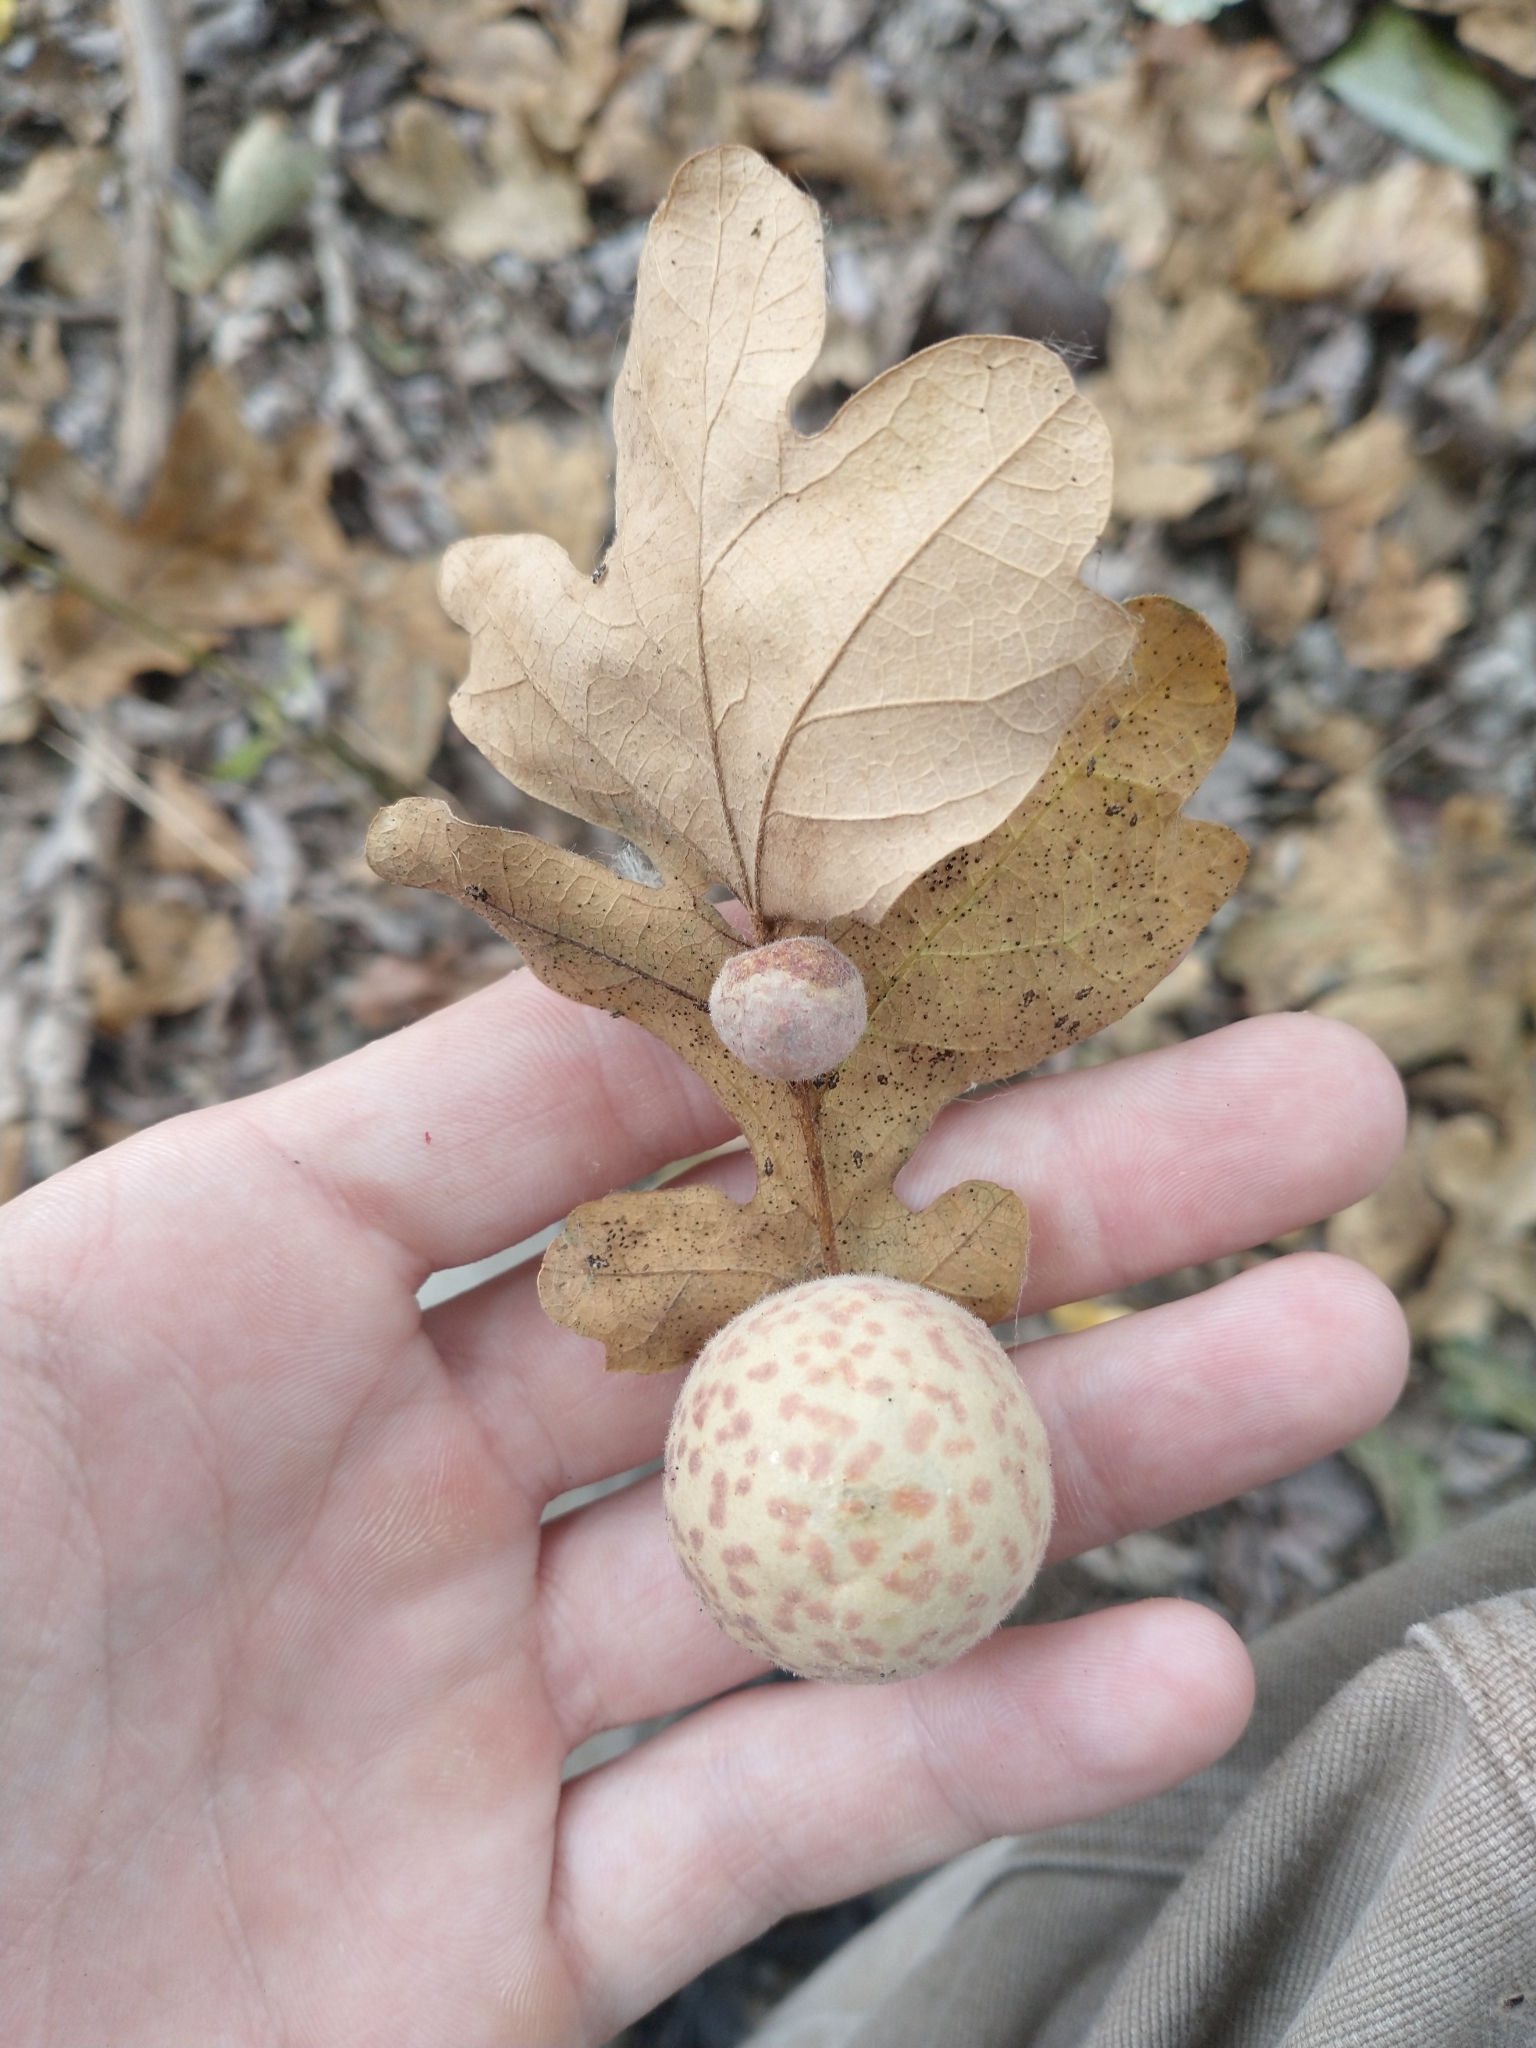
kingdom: Animalia
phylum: Arthropoda
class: Insecta
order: Hymenoptera
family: Cynipidae
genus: Cynips
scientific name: Cynips
